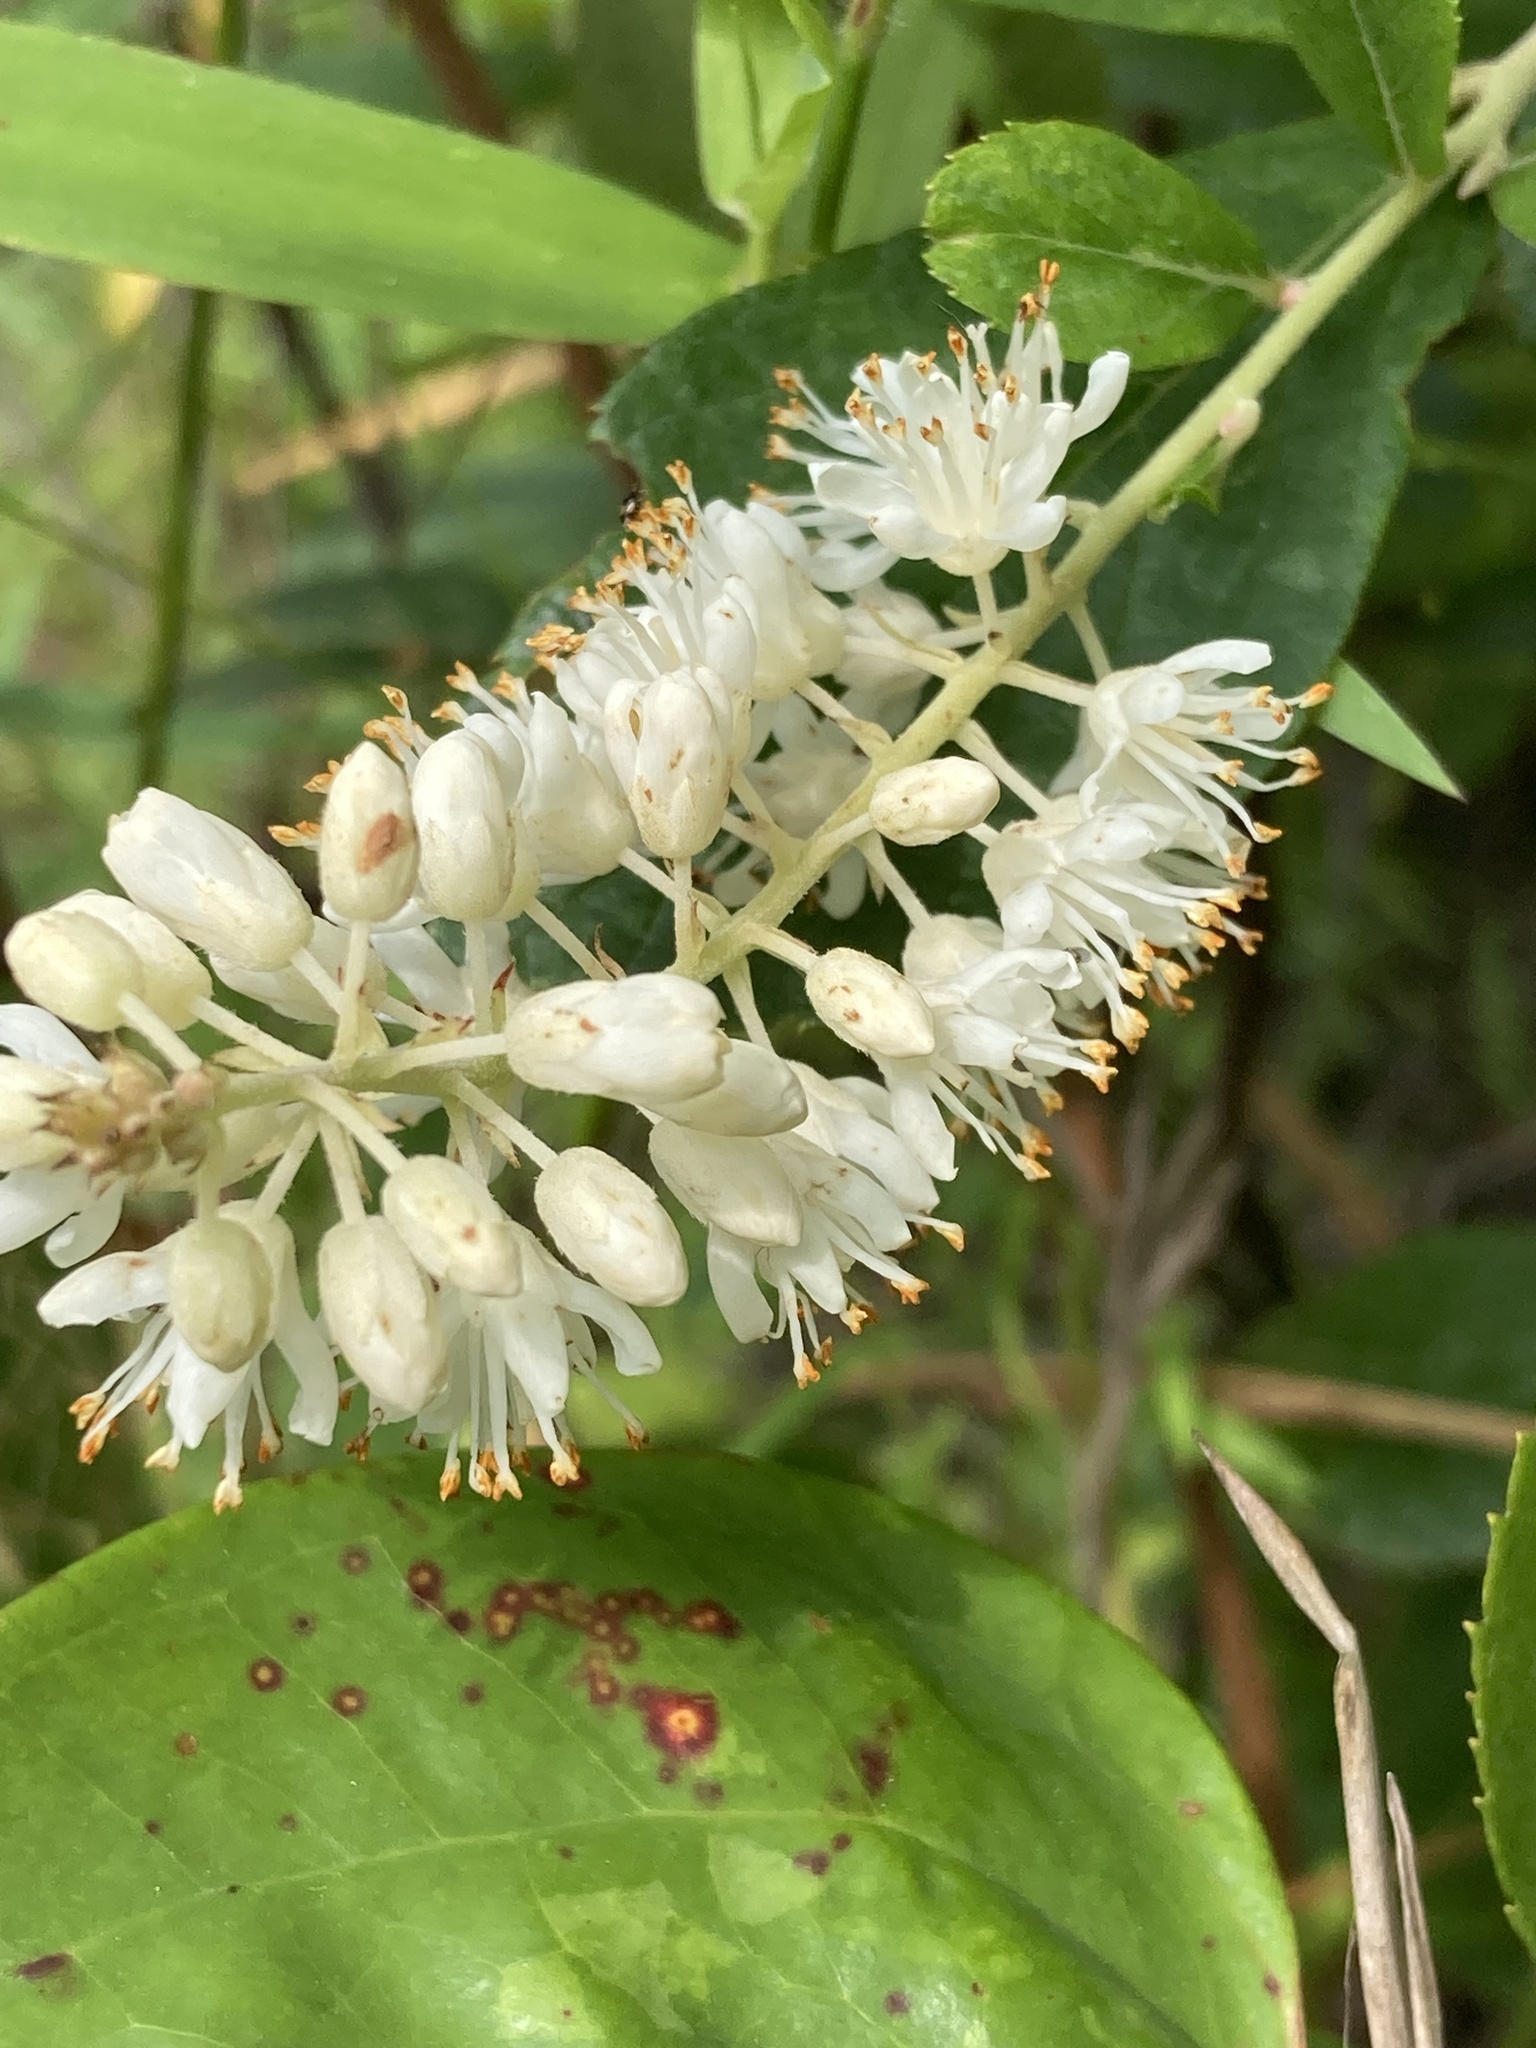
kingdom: Plantae
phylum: Tracheophyta
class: Magnoliopsida
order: Ericales
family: Clethraceae
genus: Clethra
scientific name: Clethra alnifolia
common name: Sweet pepperbush
